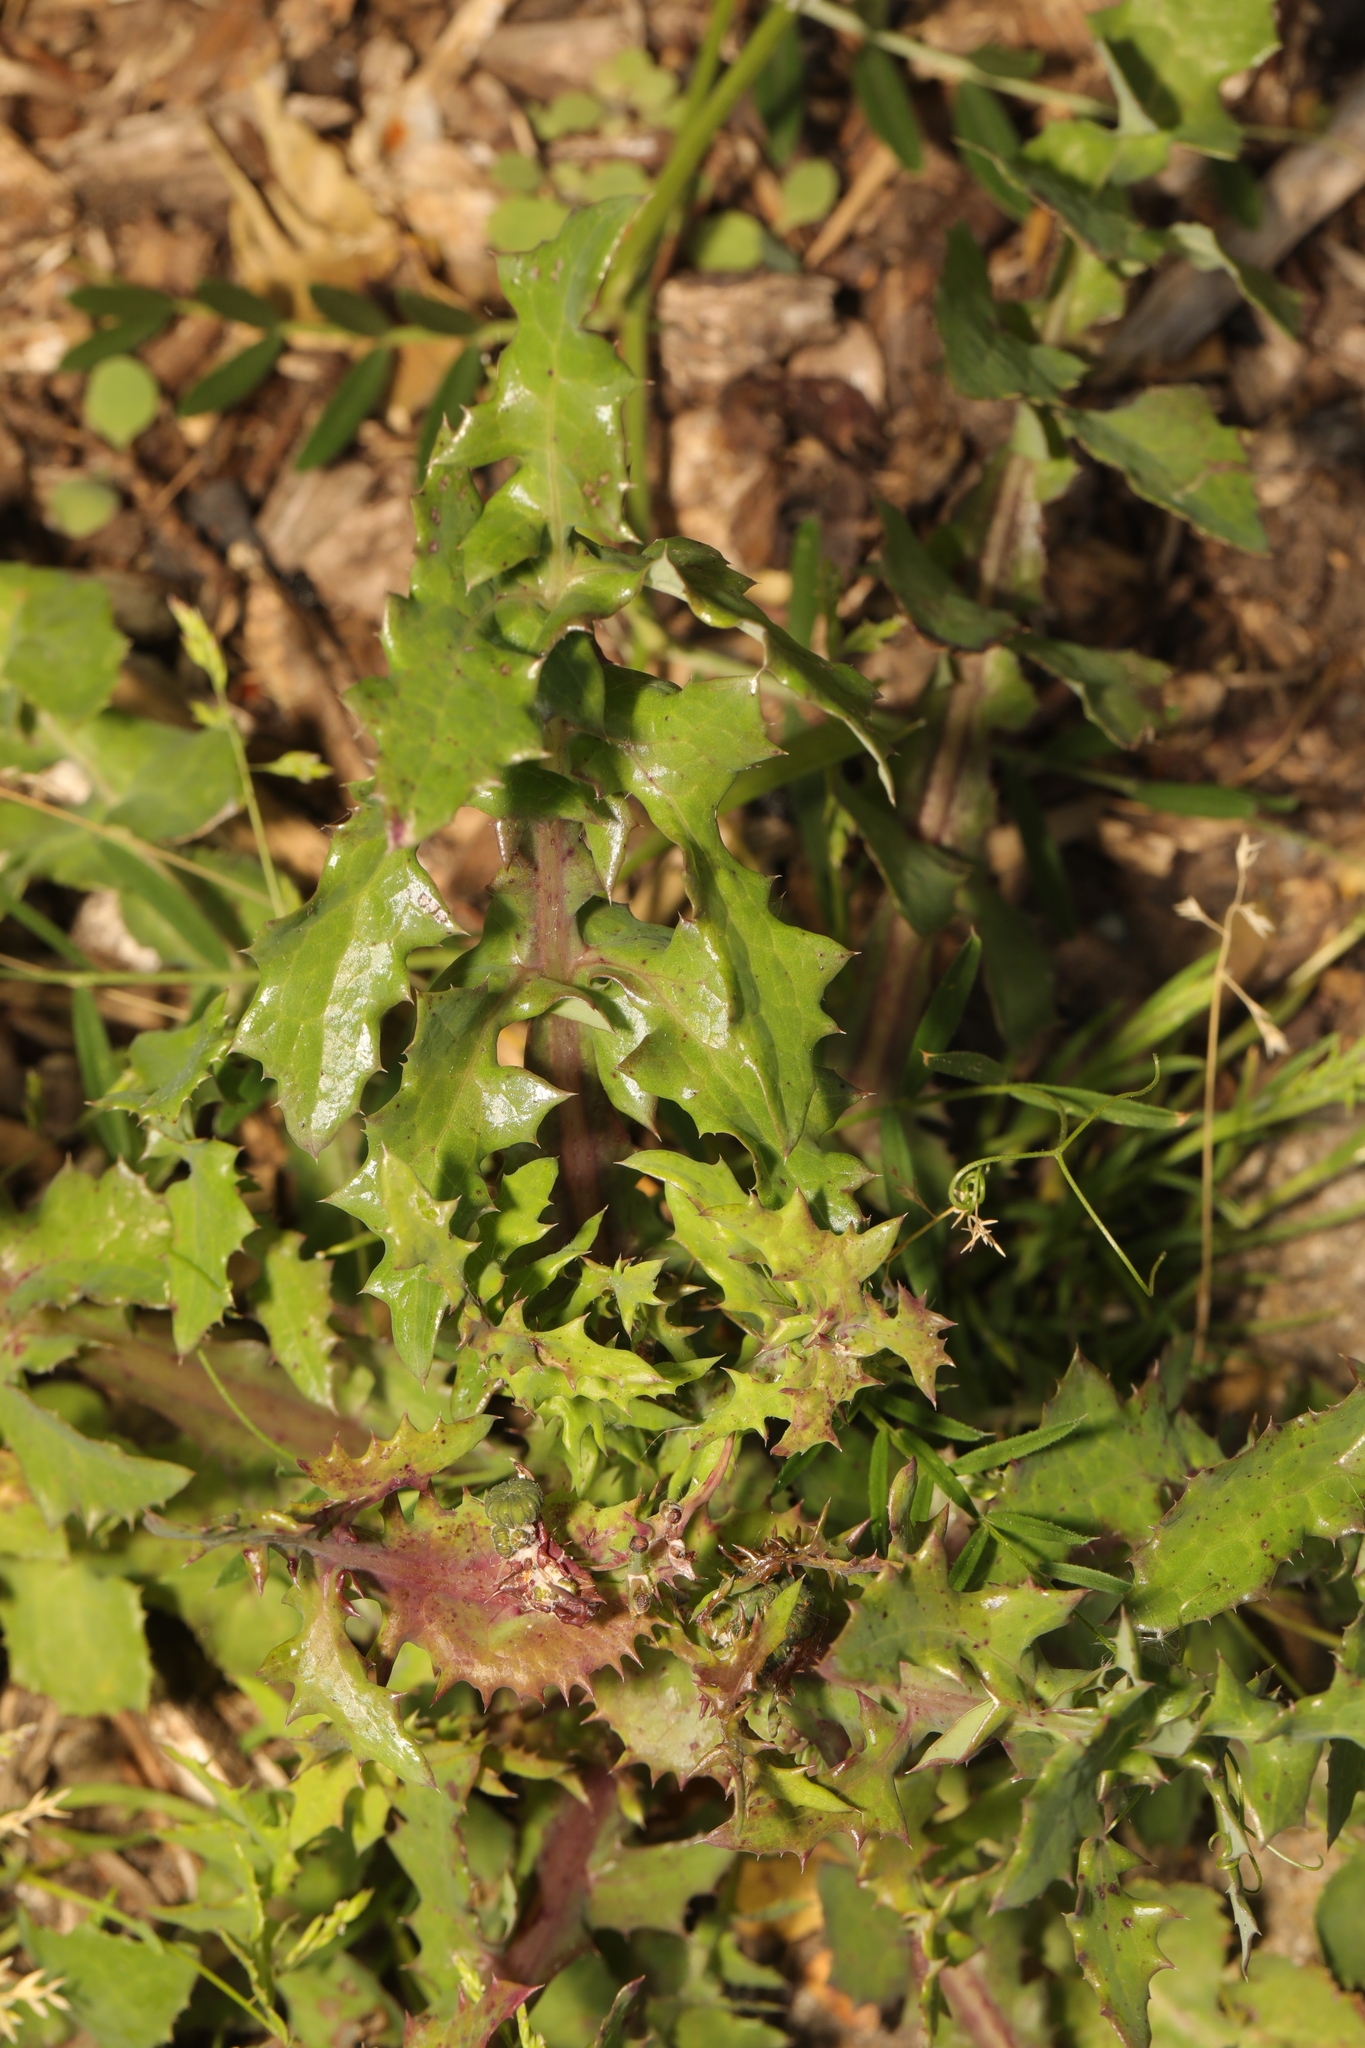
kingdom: Plantae
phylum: Tracheophyta
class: Magnoliopsida
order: Asterales
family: Asteraceae
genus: Sonchus
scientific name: Sonchus oleraceus
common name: Common sowthistle
